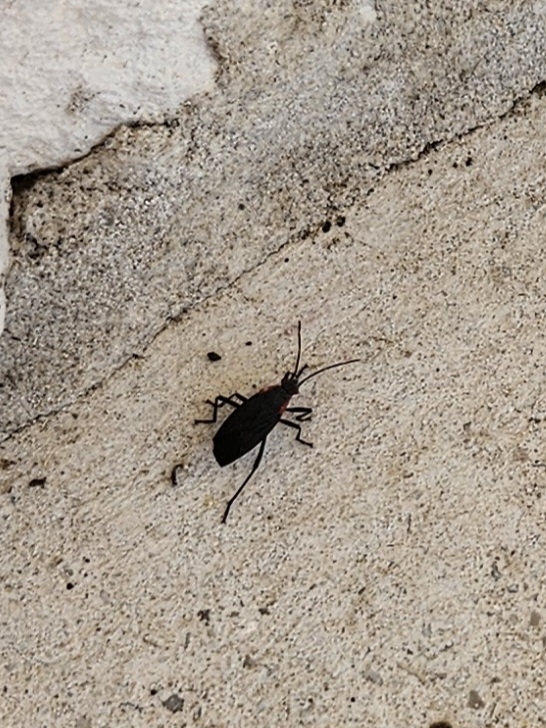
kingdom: Animalia
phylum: Arthropoda
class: Insecta
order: Hemiptera
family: Rhopalidae
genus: Jadera
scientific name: Jadera haematoloma
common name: Red-shouldered bug
